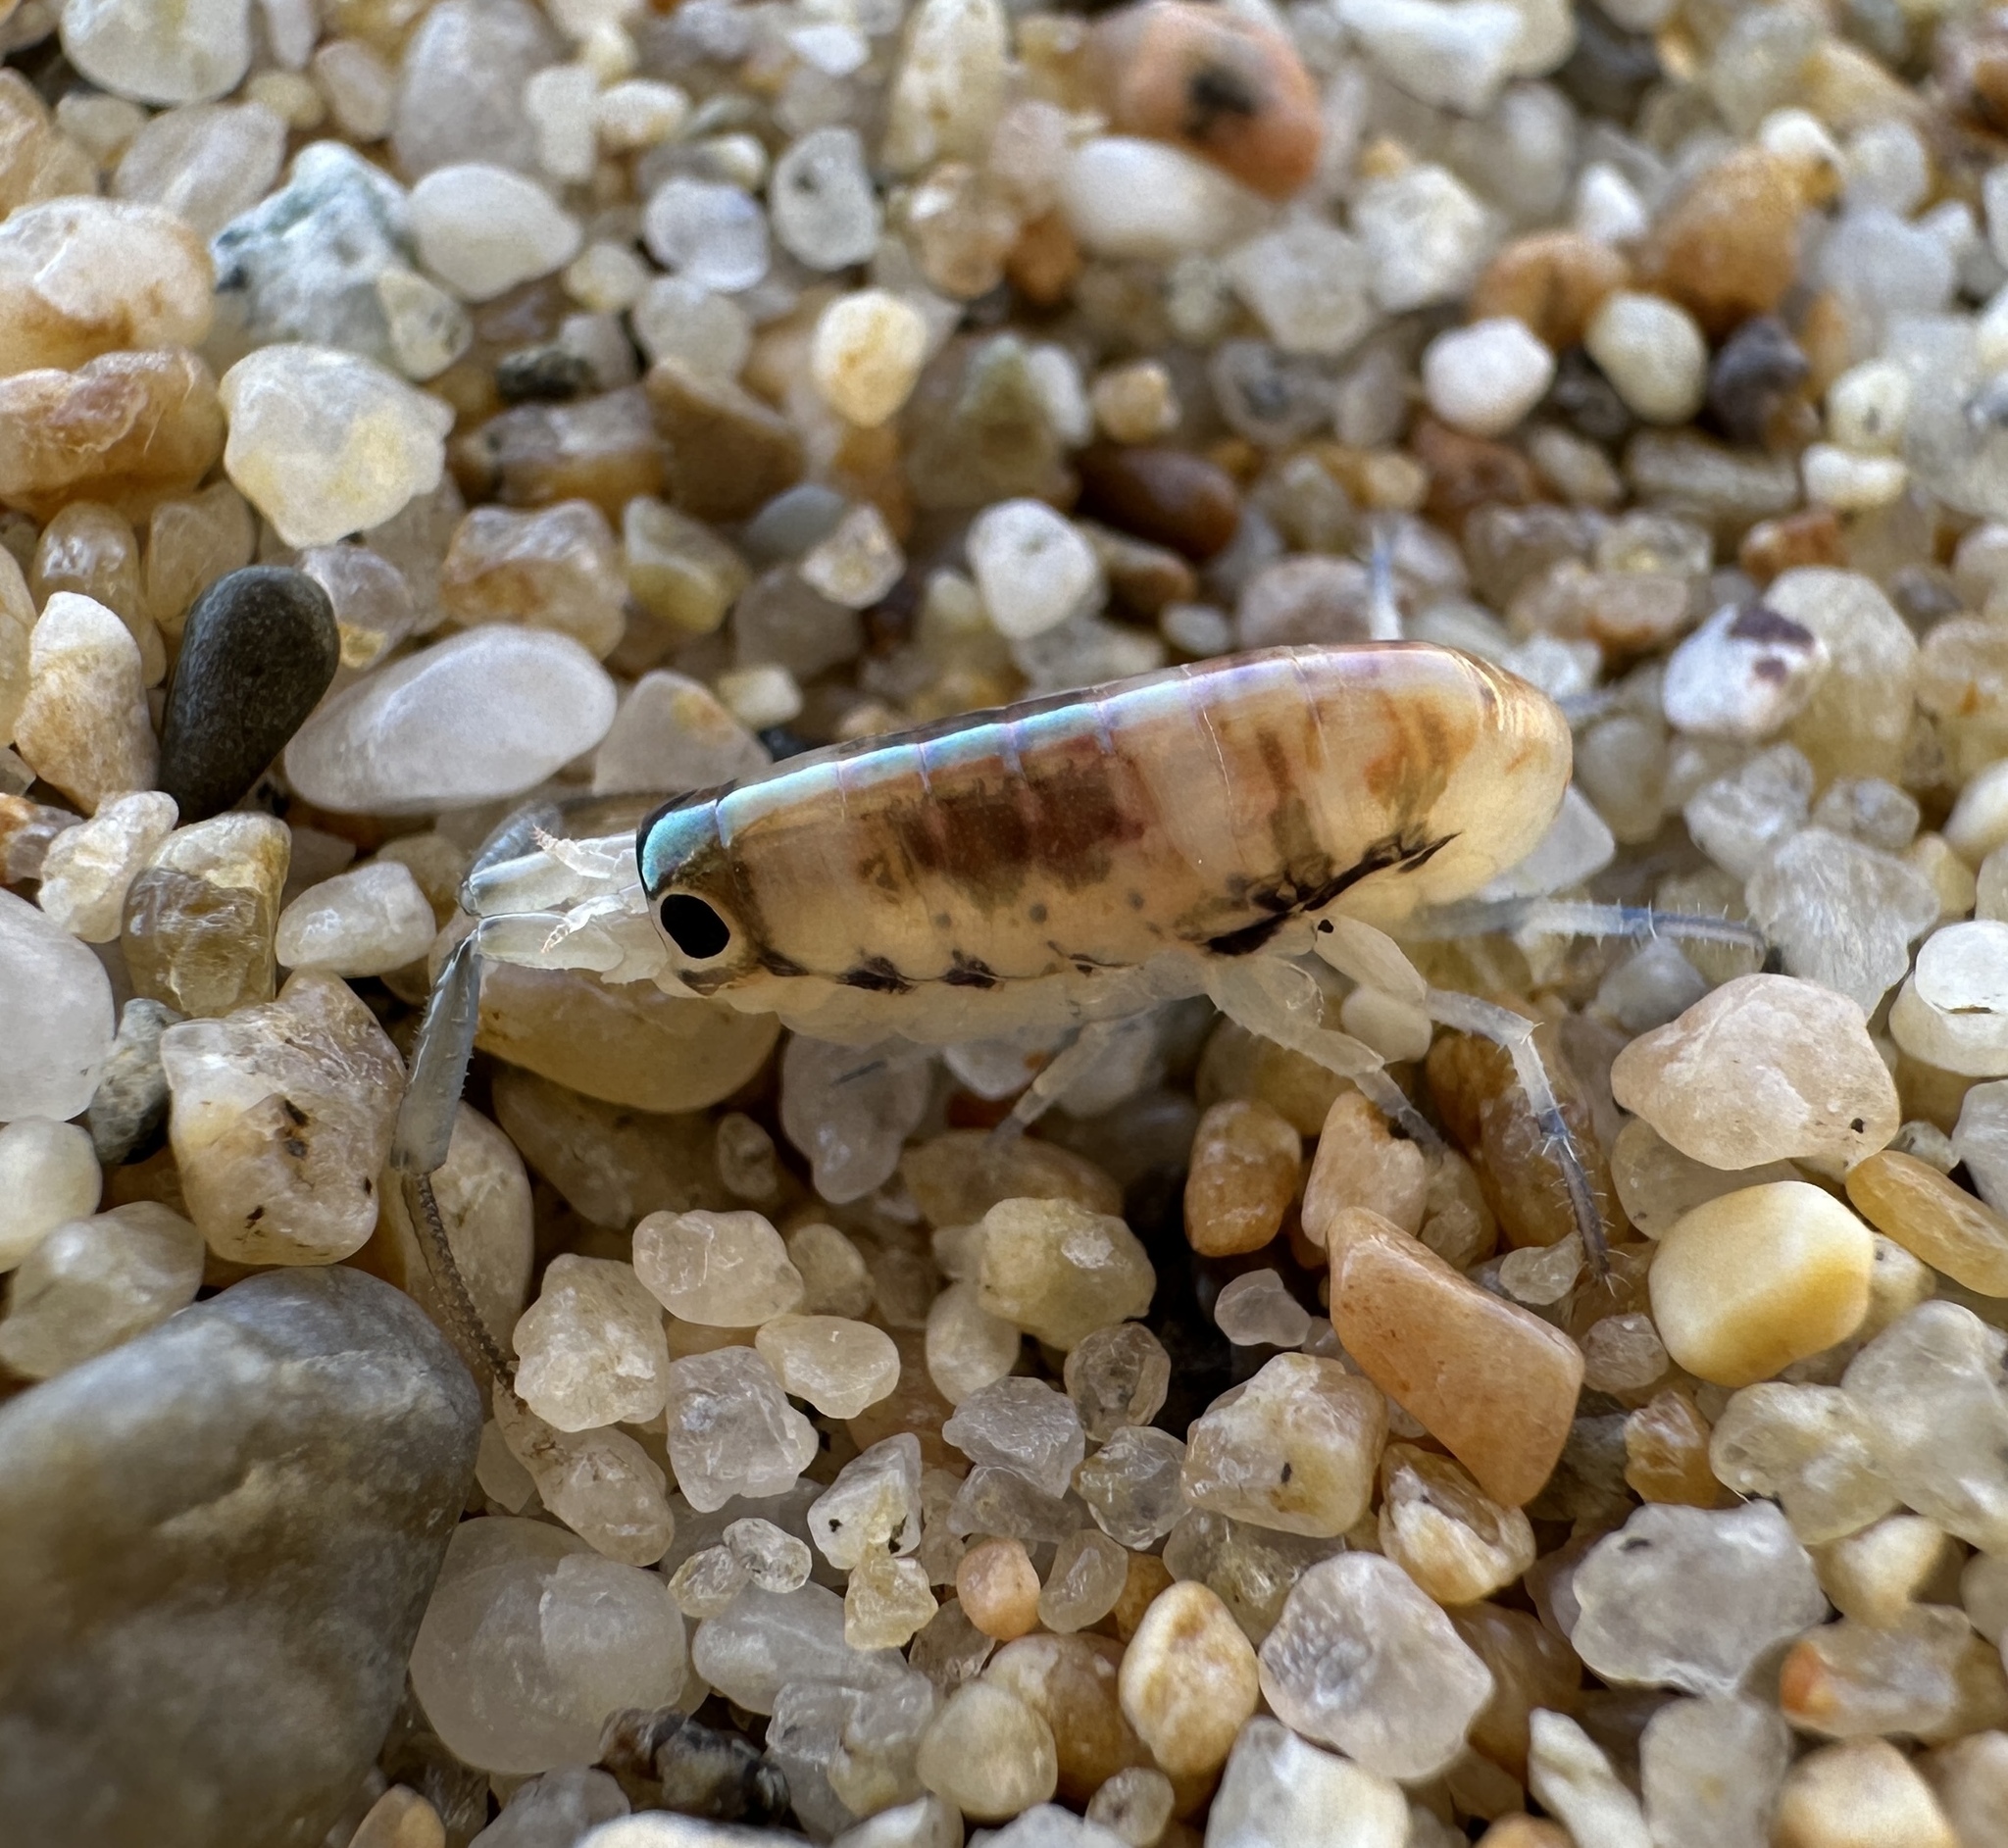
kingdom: Animalia
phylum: Arthropoda
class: Malacostraca
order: Amphipoda
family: Talitridae
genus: Megalorchestia
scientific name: Megalorchestia pugettensis
